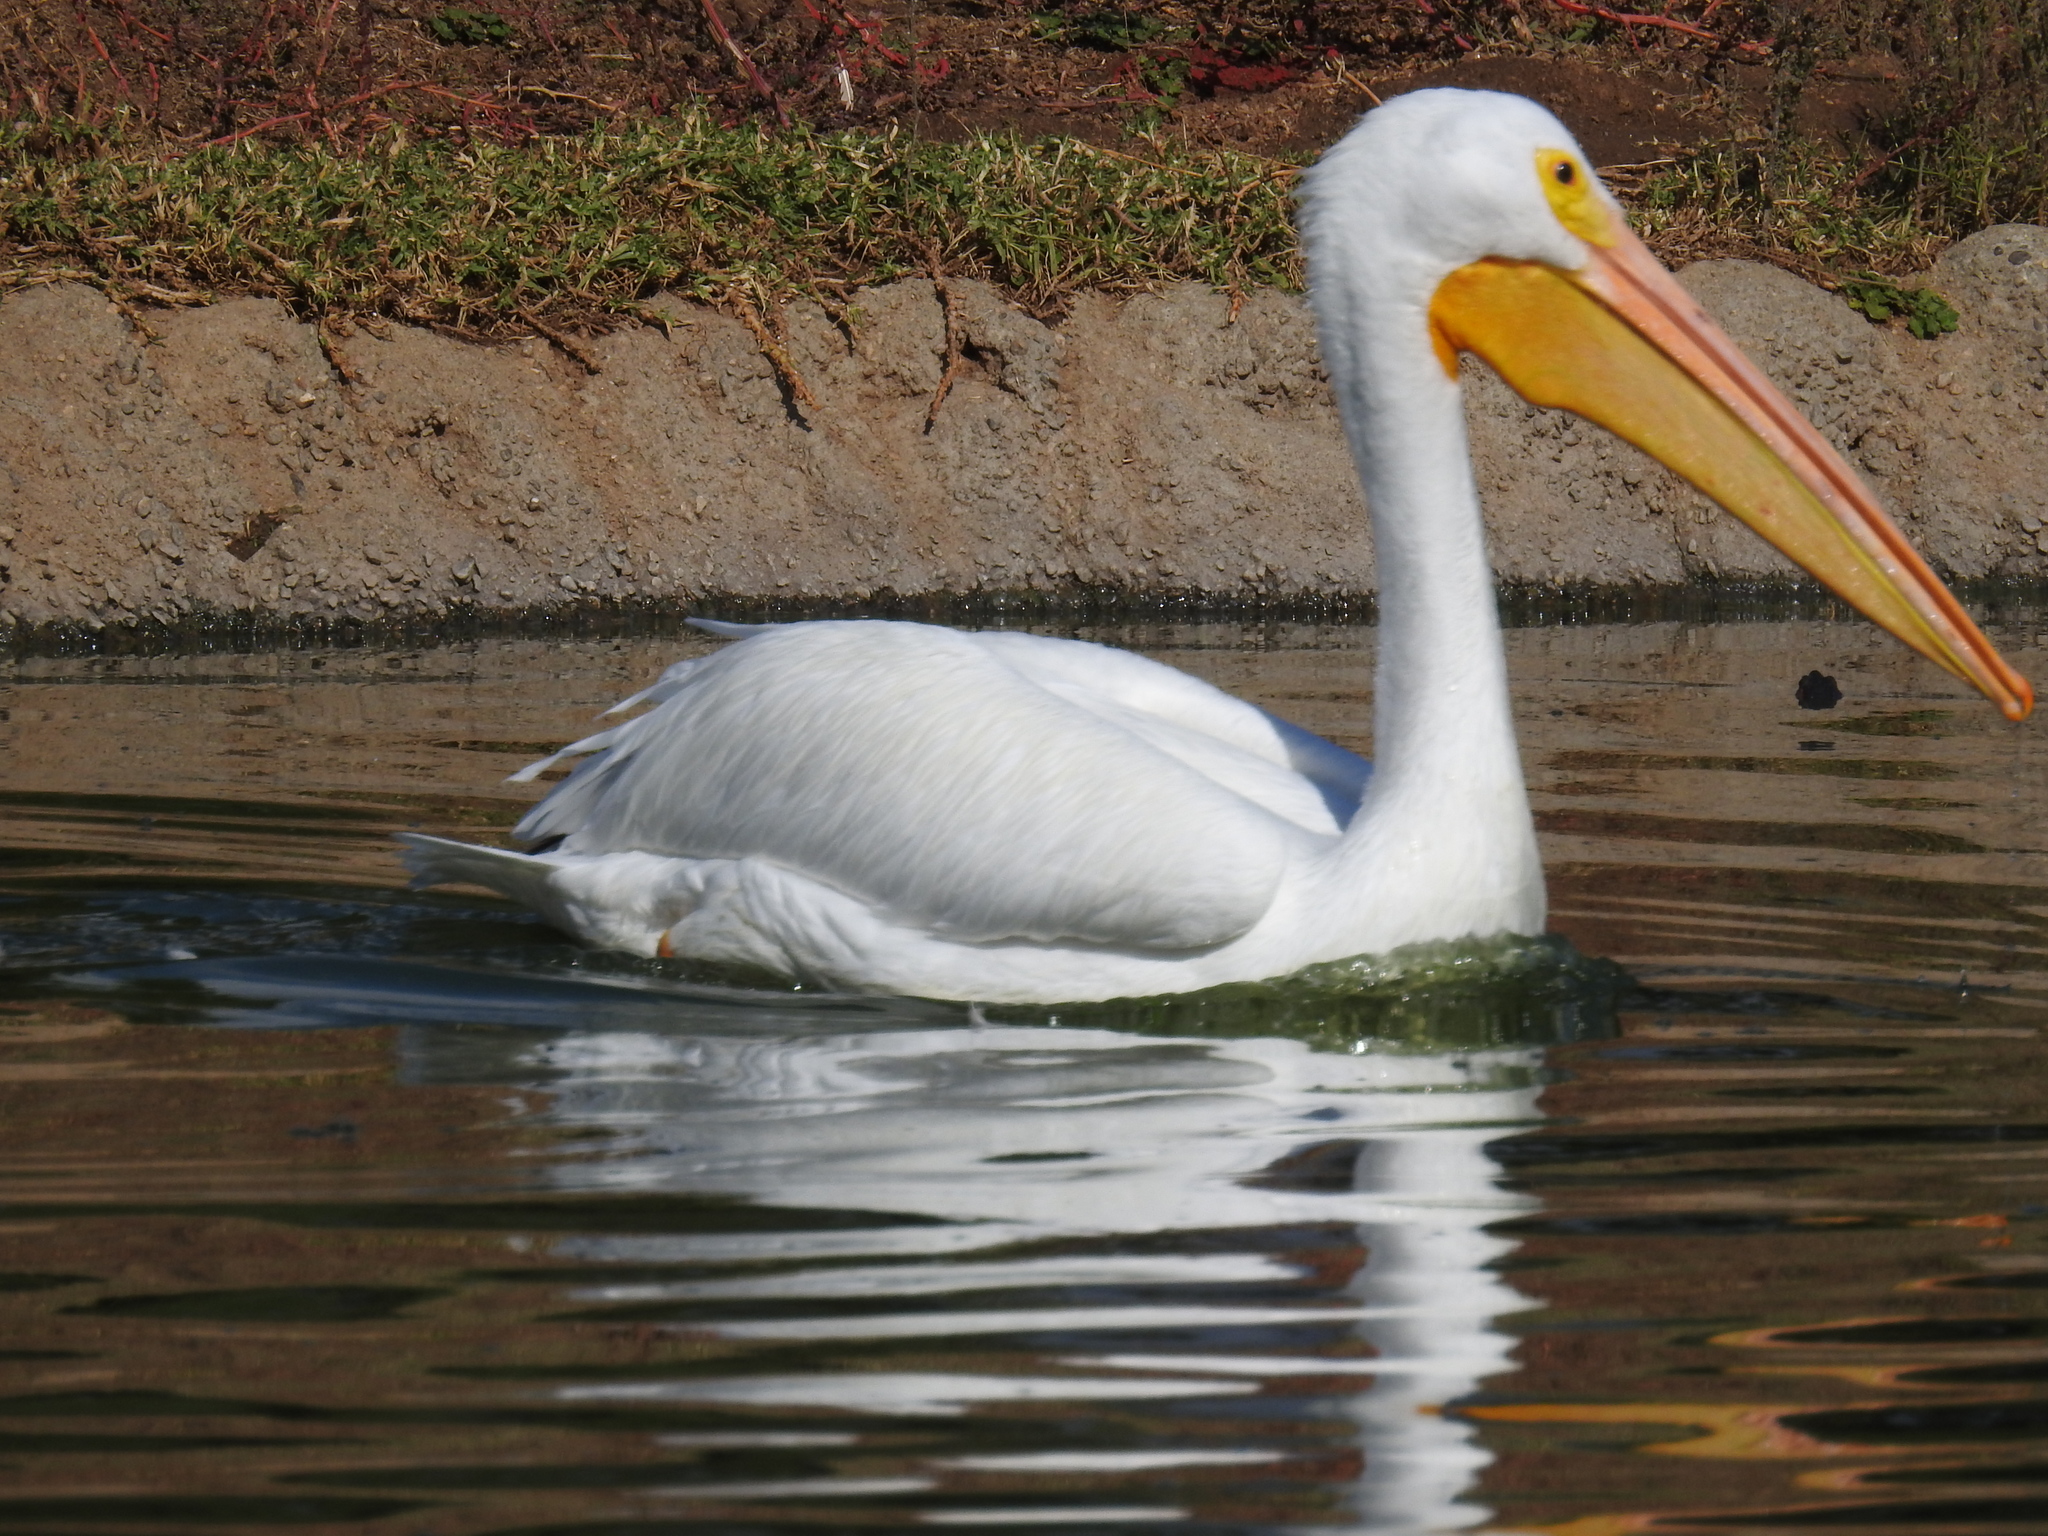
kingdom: Animalia
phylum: Chordata
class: Aves
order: Pelecaniformes
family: Pelecanidae
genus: Pelecanus
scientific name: Pelecanus erythrorhynchos
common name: American white pelican
